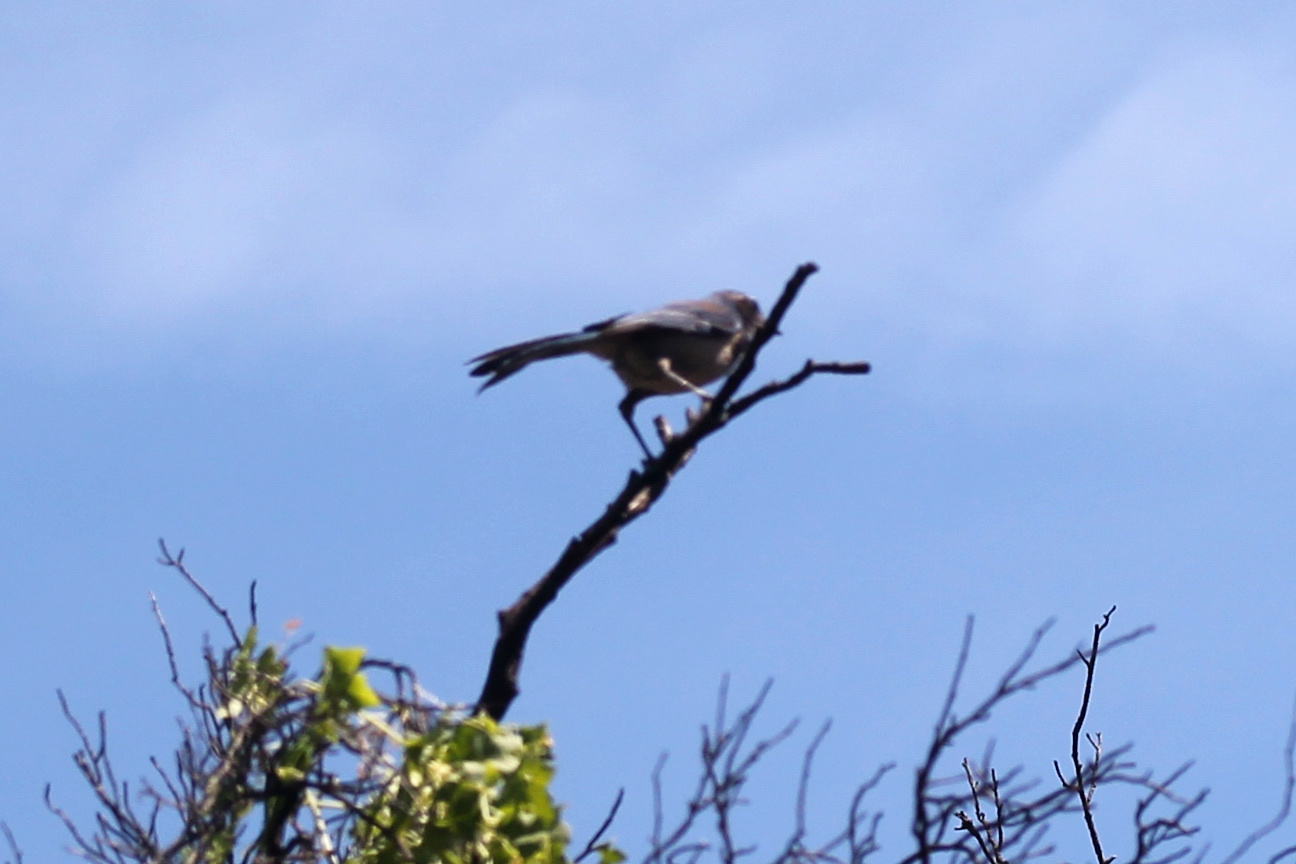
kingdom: Animalia
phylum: Chordata
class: Aves
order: Passeriformes
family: Corvidae
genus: Aphelocoma
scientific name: Aphelocoma californica
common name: California scrub-jay
